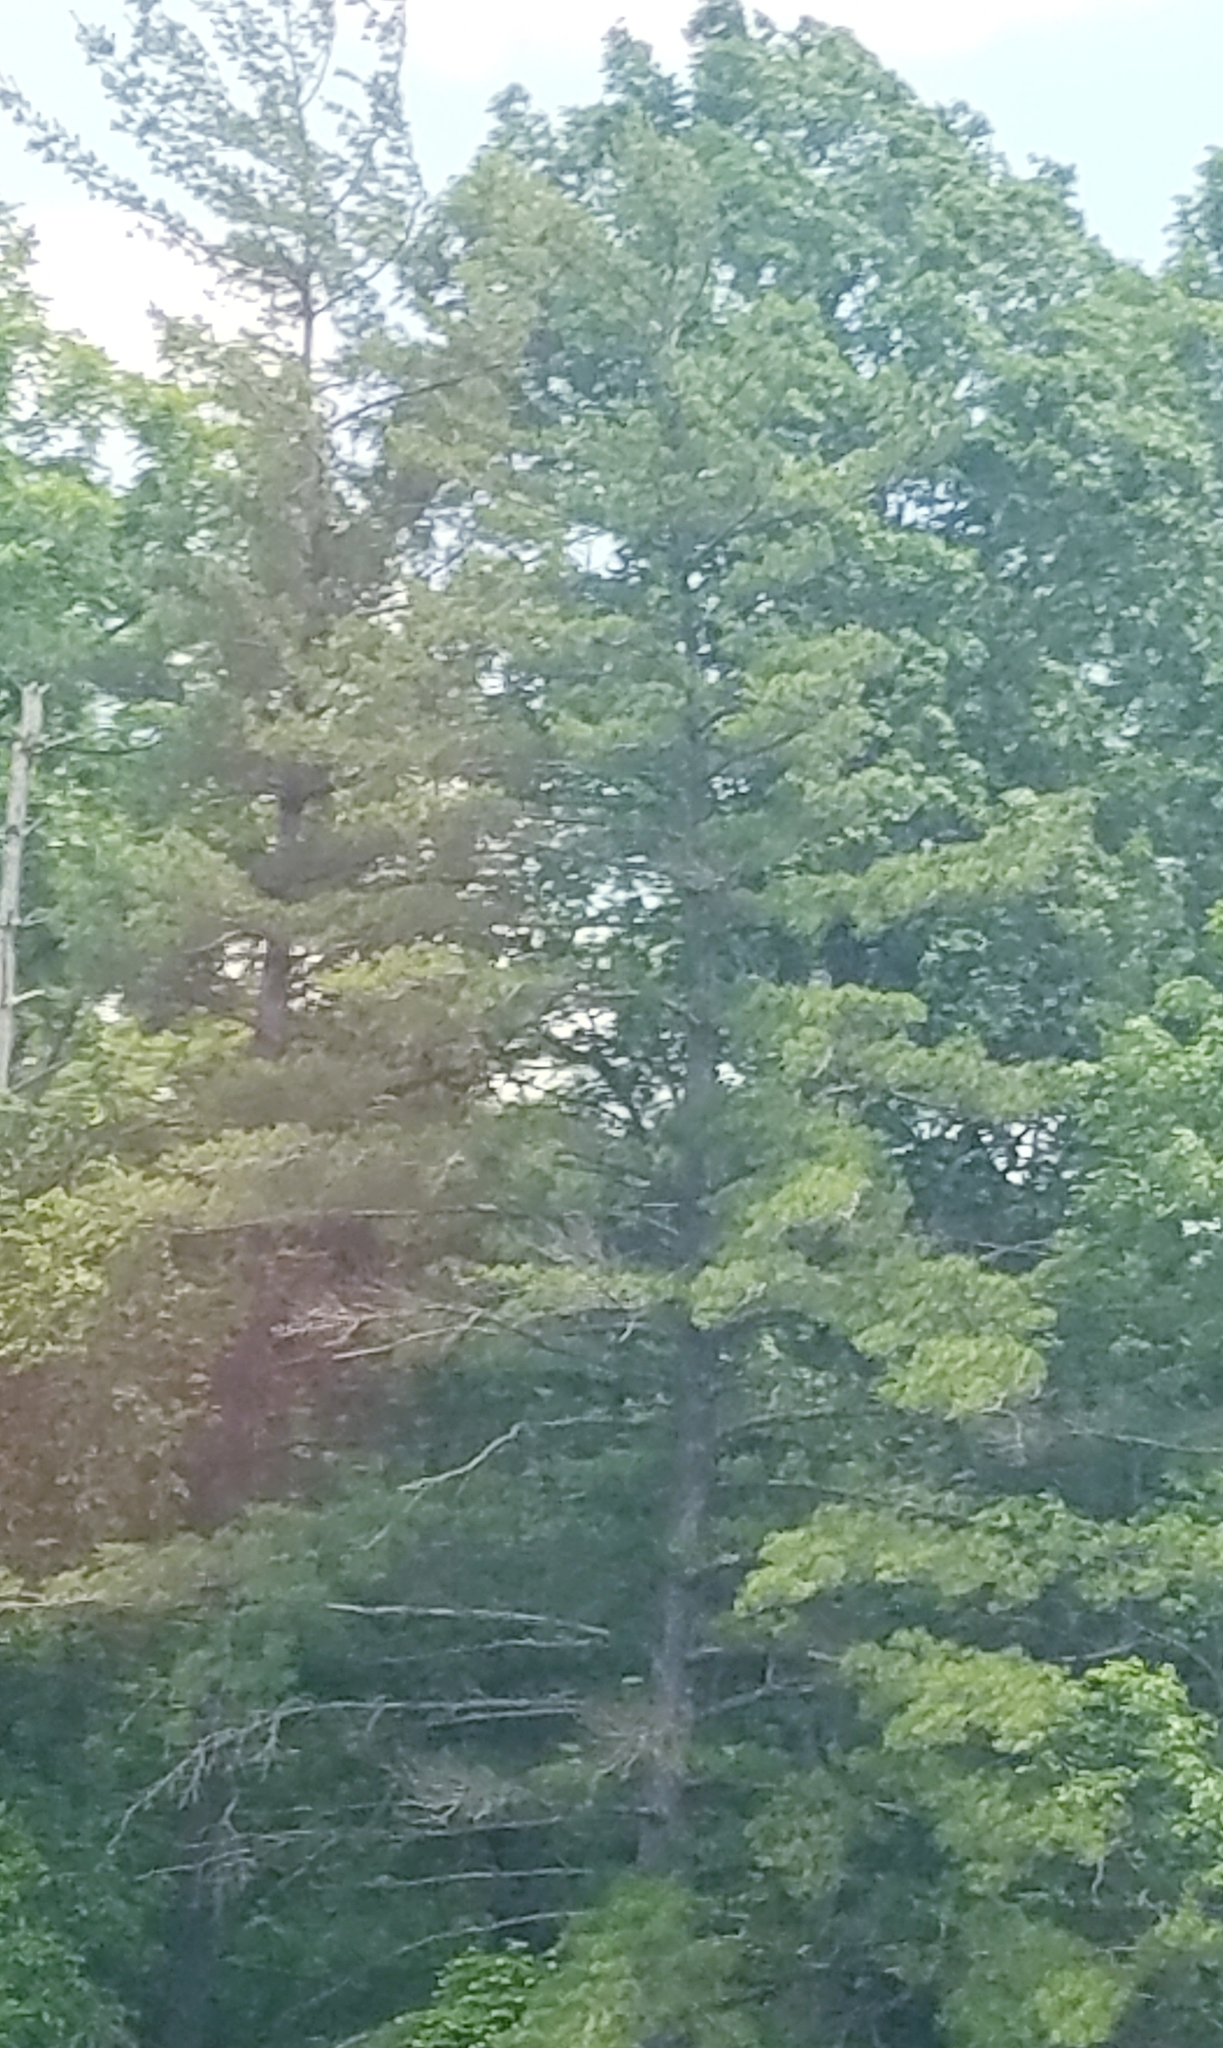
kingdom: Plantae
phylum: Tracheophyta
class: Pinopsida
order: Pinales
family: Pinaceae
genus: Pinus
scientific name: Pinus strobus
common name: Weymouth pine
